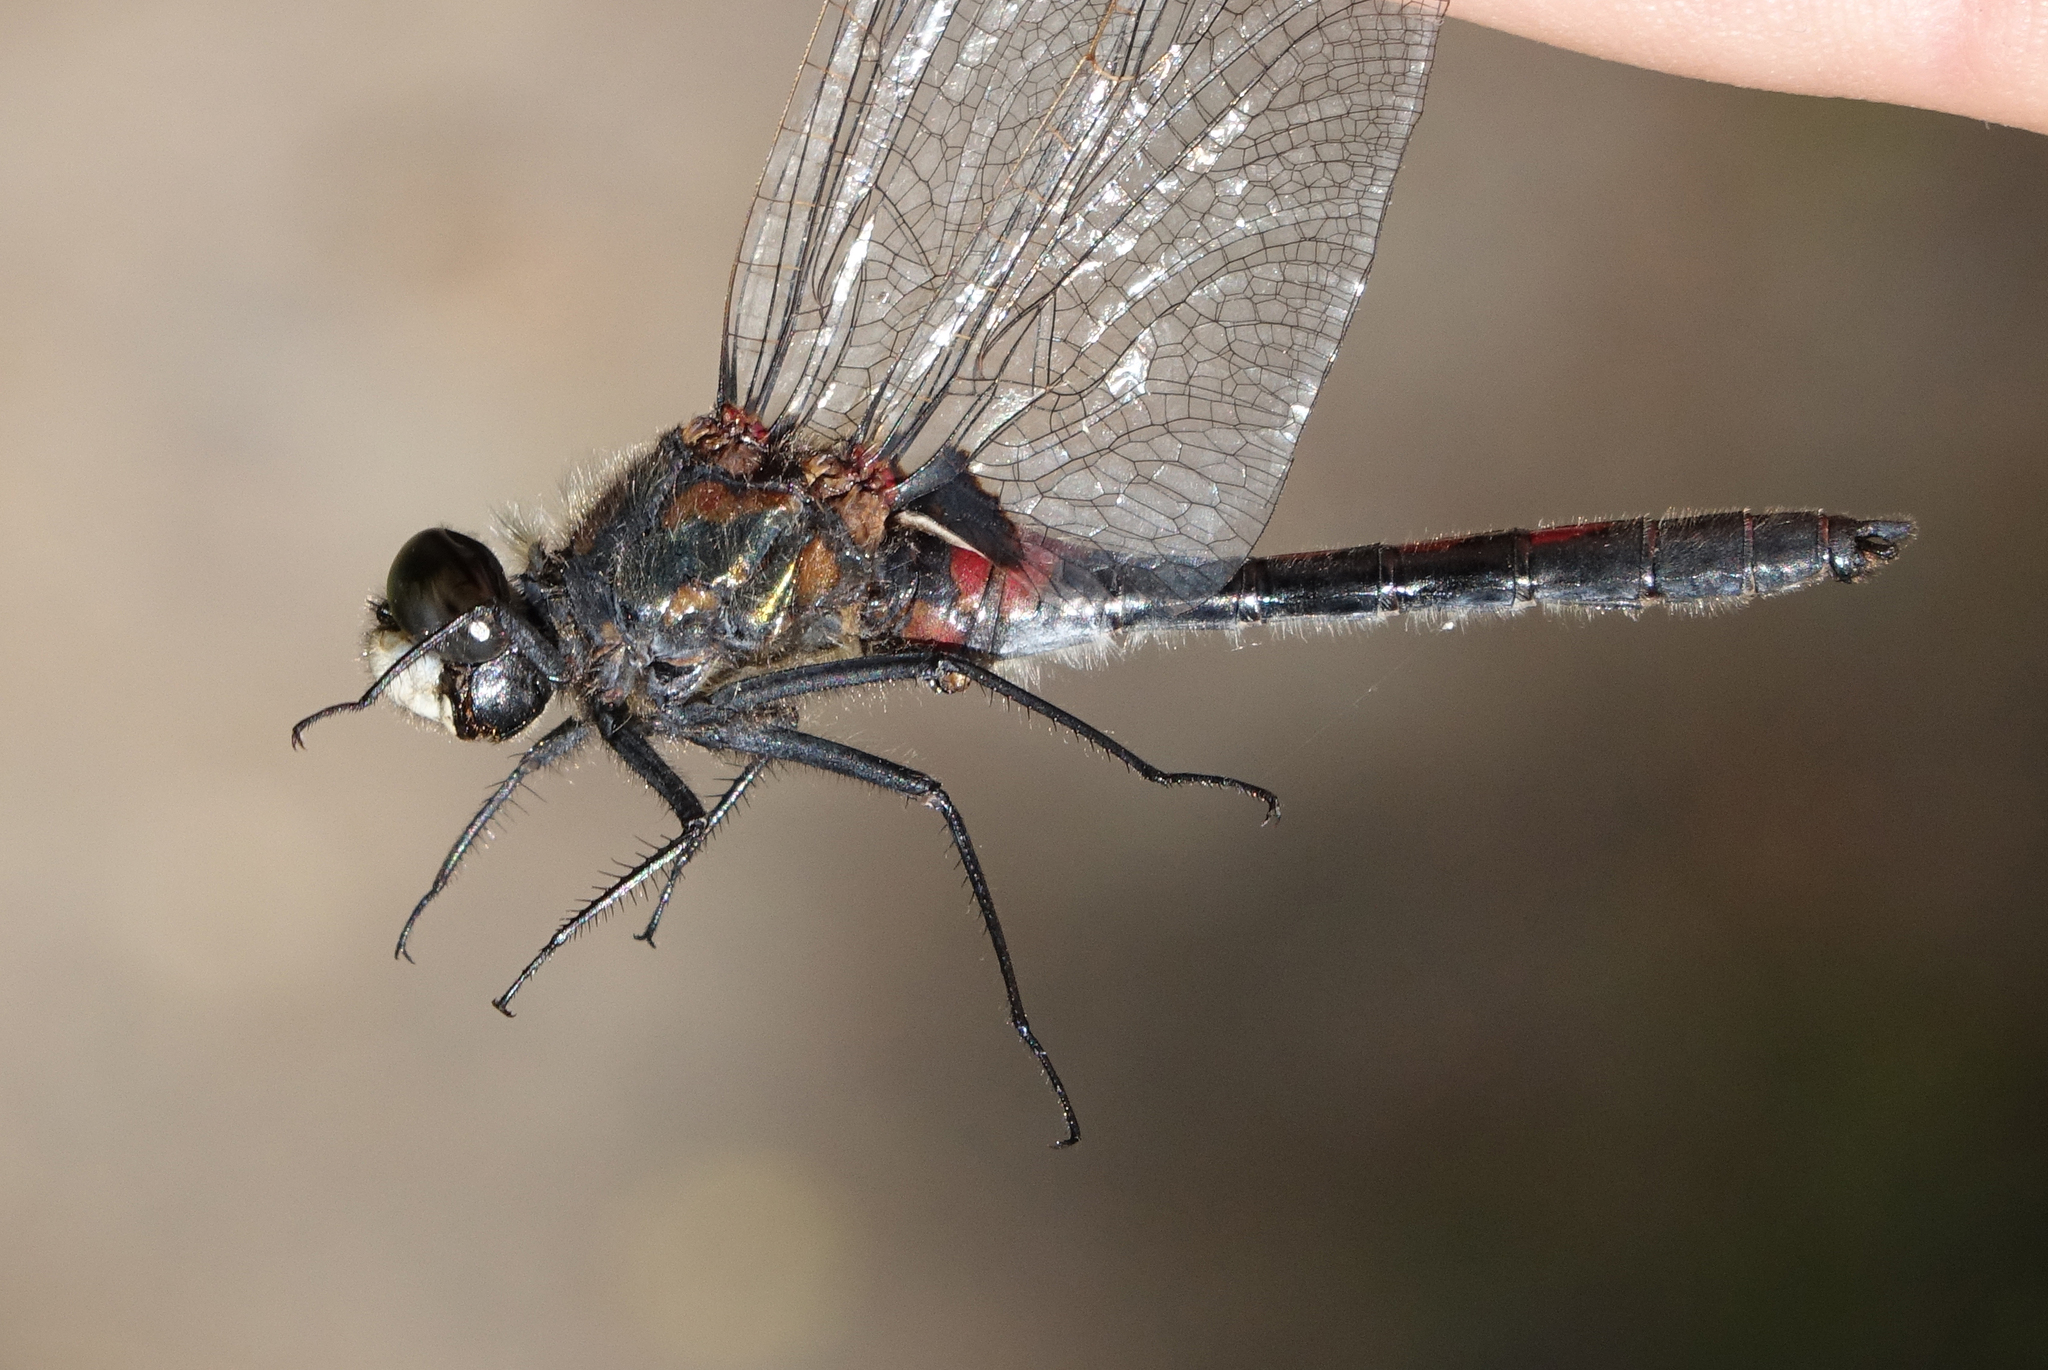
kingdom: Animalia
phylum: Arthropoda
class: Insecta
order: Odonata
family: Libellulidae
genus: Leucorrhinia
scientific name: Leucorrhinia rubicunda
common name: Ruby whiteface
